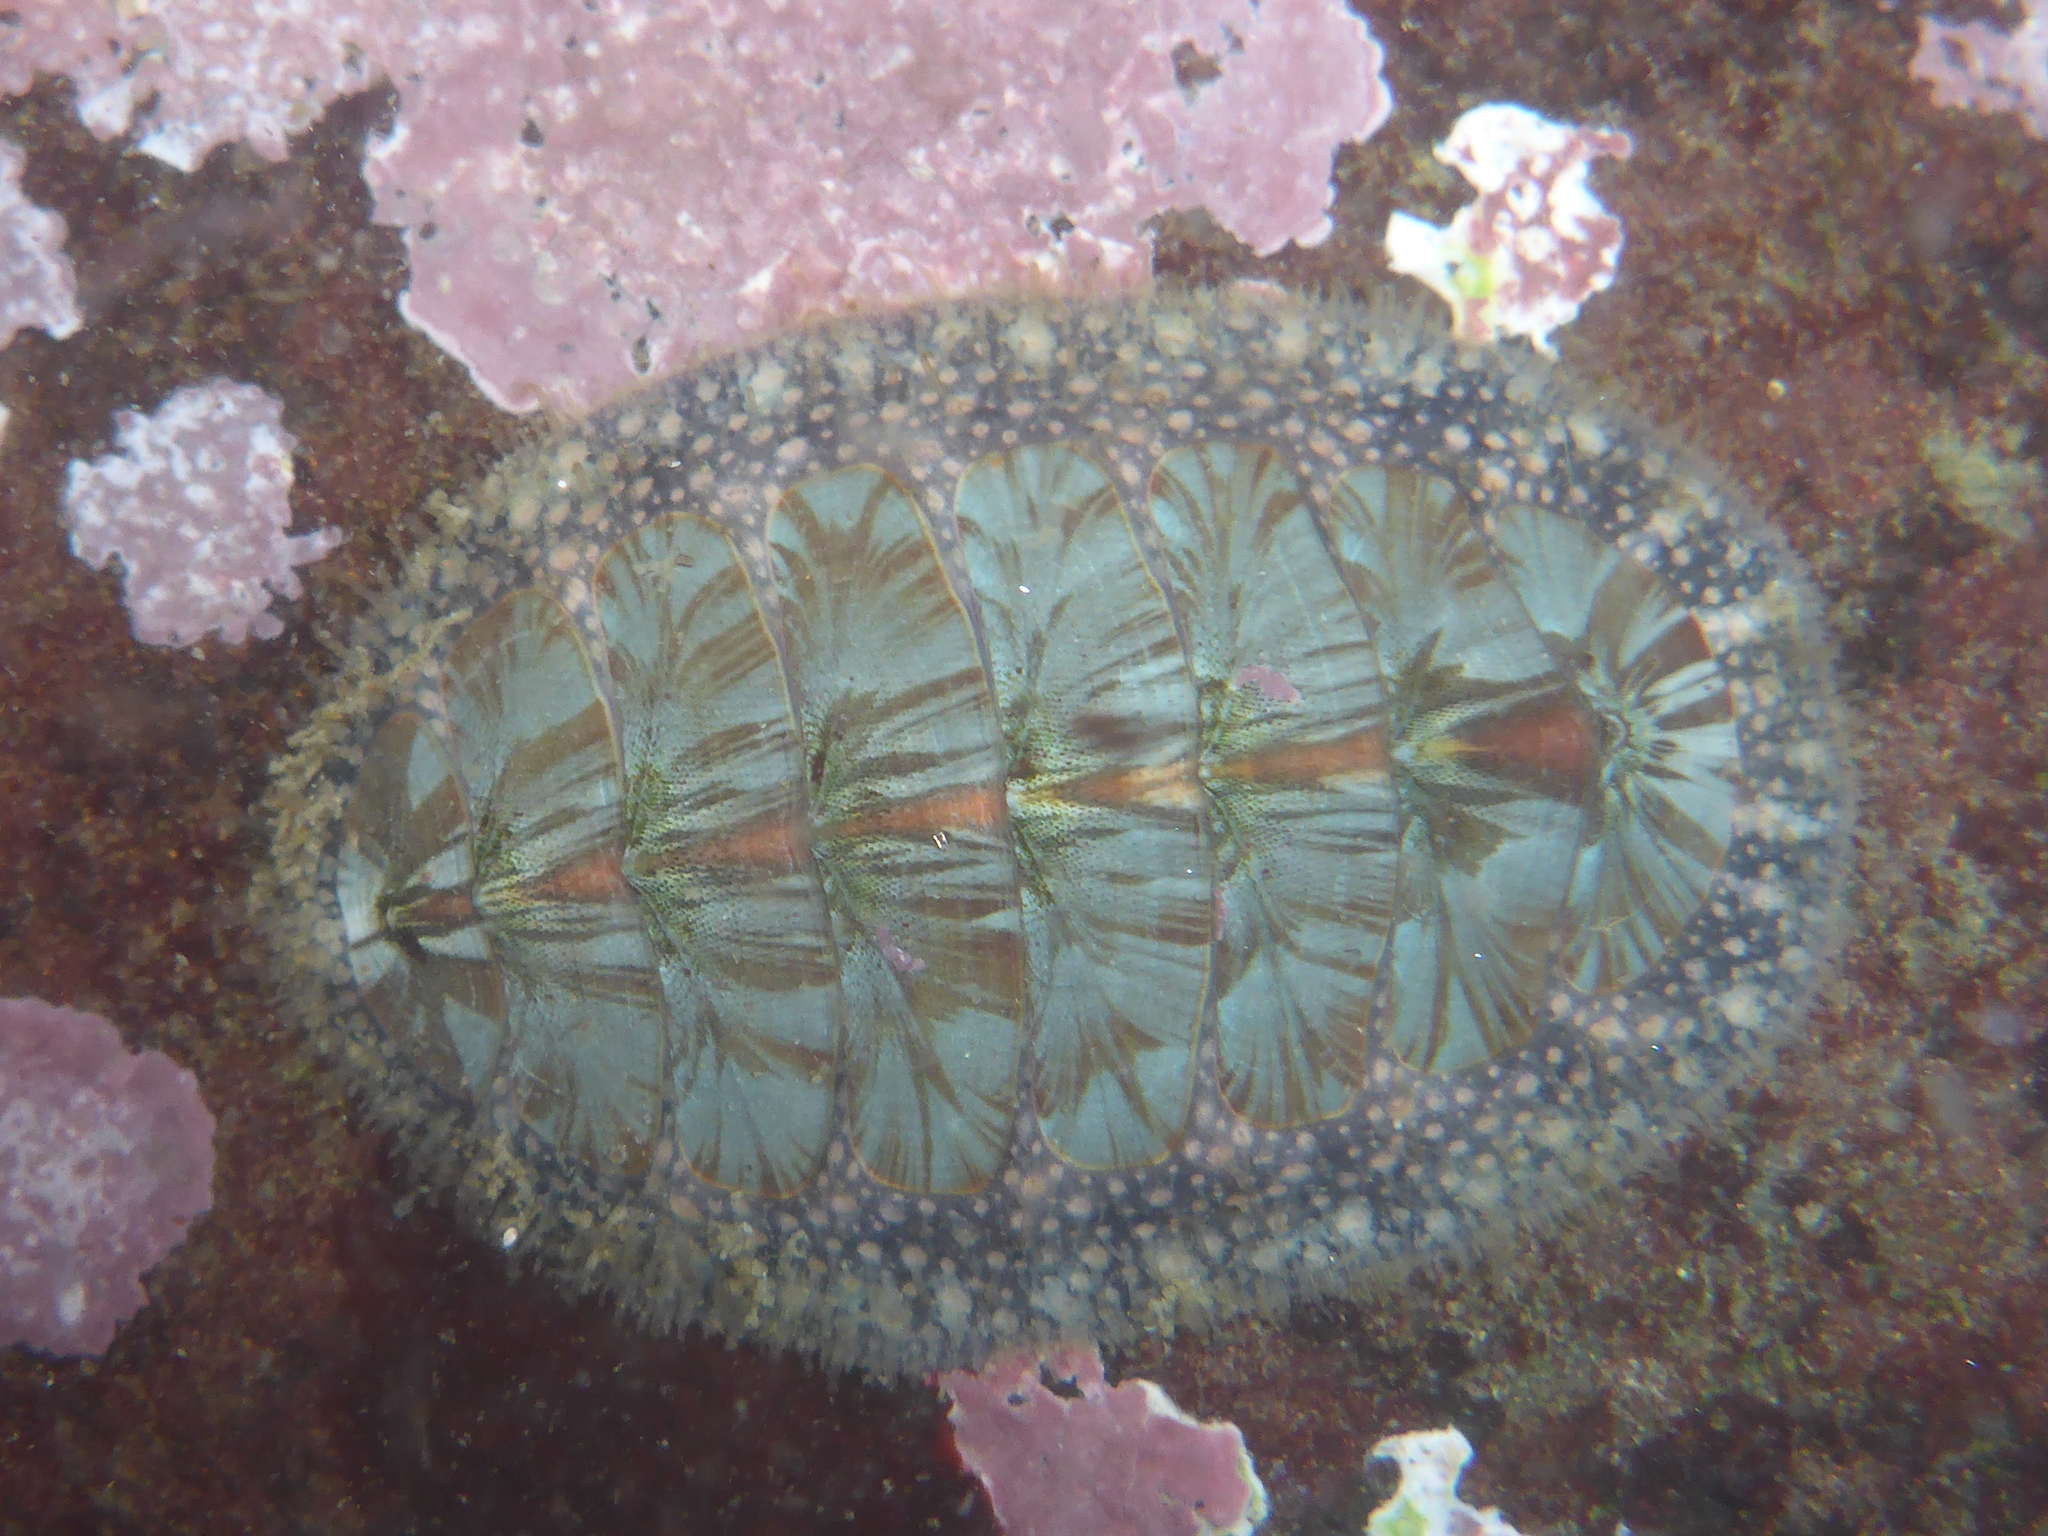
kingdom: Animalia
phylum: Mollusca
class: Polyplacophora
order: Chitonida
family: Mopaliidae
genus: Mopalia
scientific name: Mopalia lignosa
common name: Woody chiton
